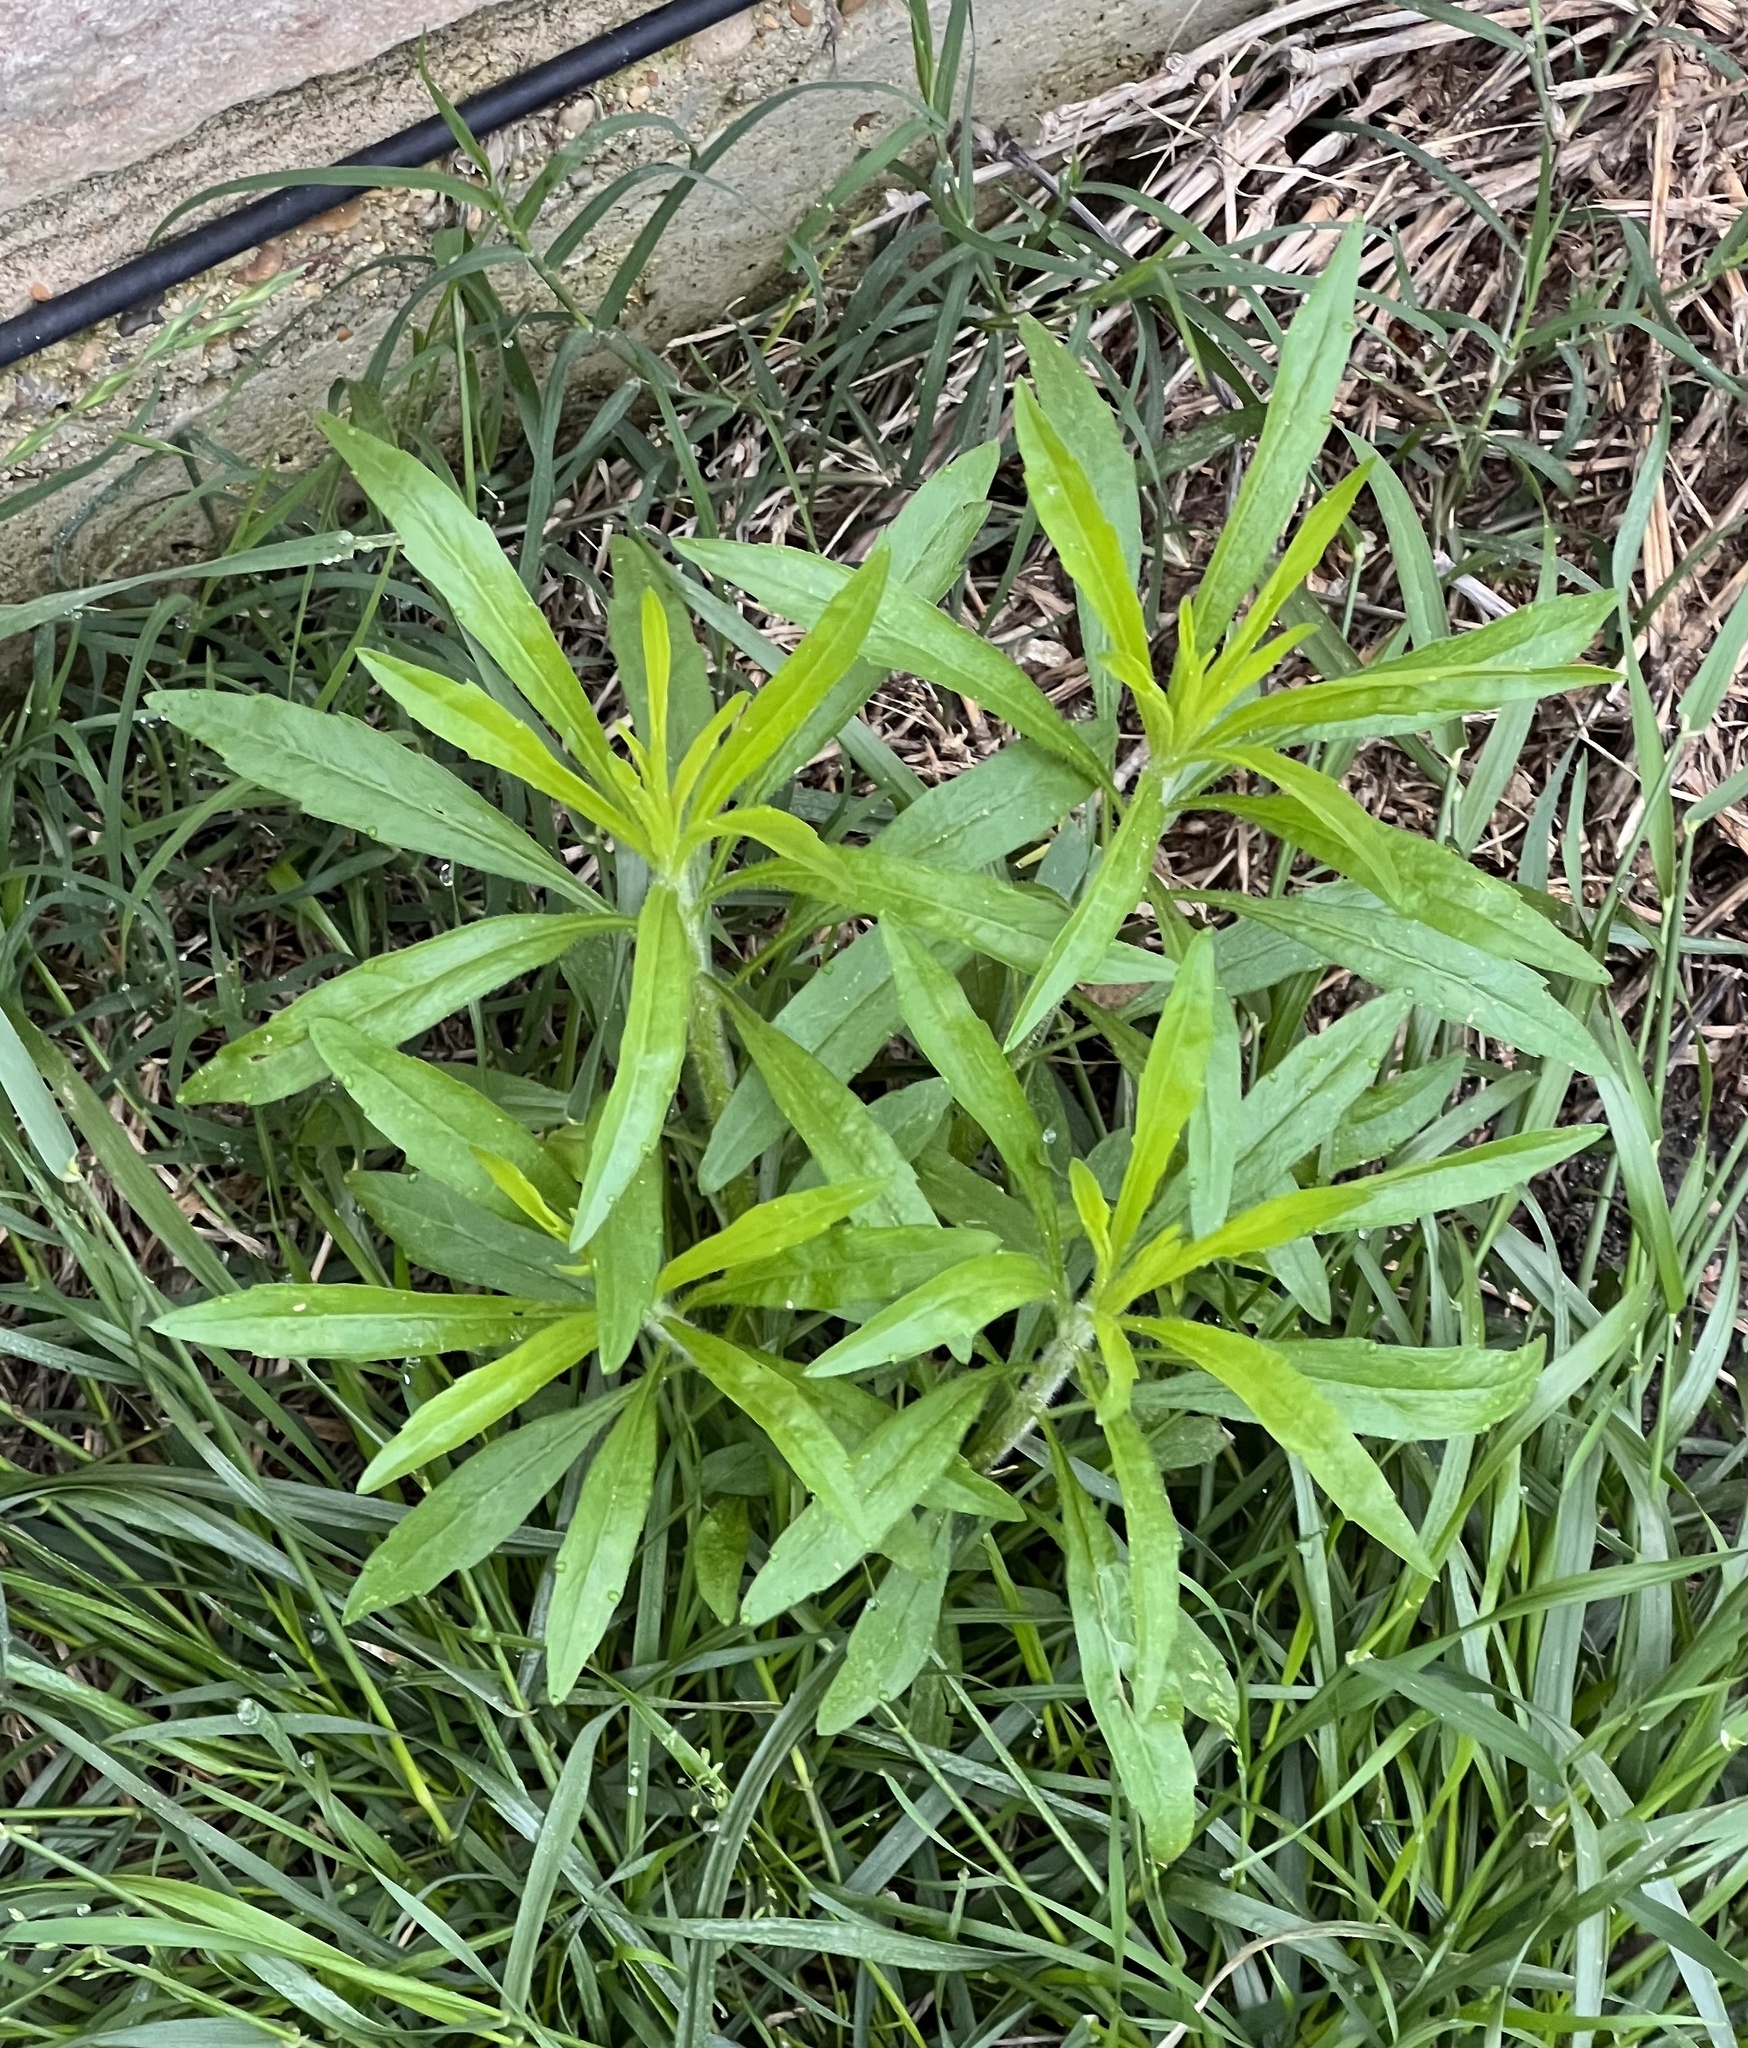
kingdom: Plantae
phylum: Tracheophyta
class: Magnoliopsida
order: Asterales
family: Asteraceae
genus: Erigeron
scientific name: Erigeron canadensis
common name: Canadian fleabane
